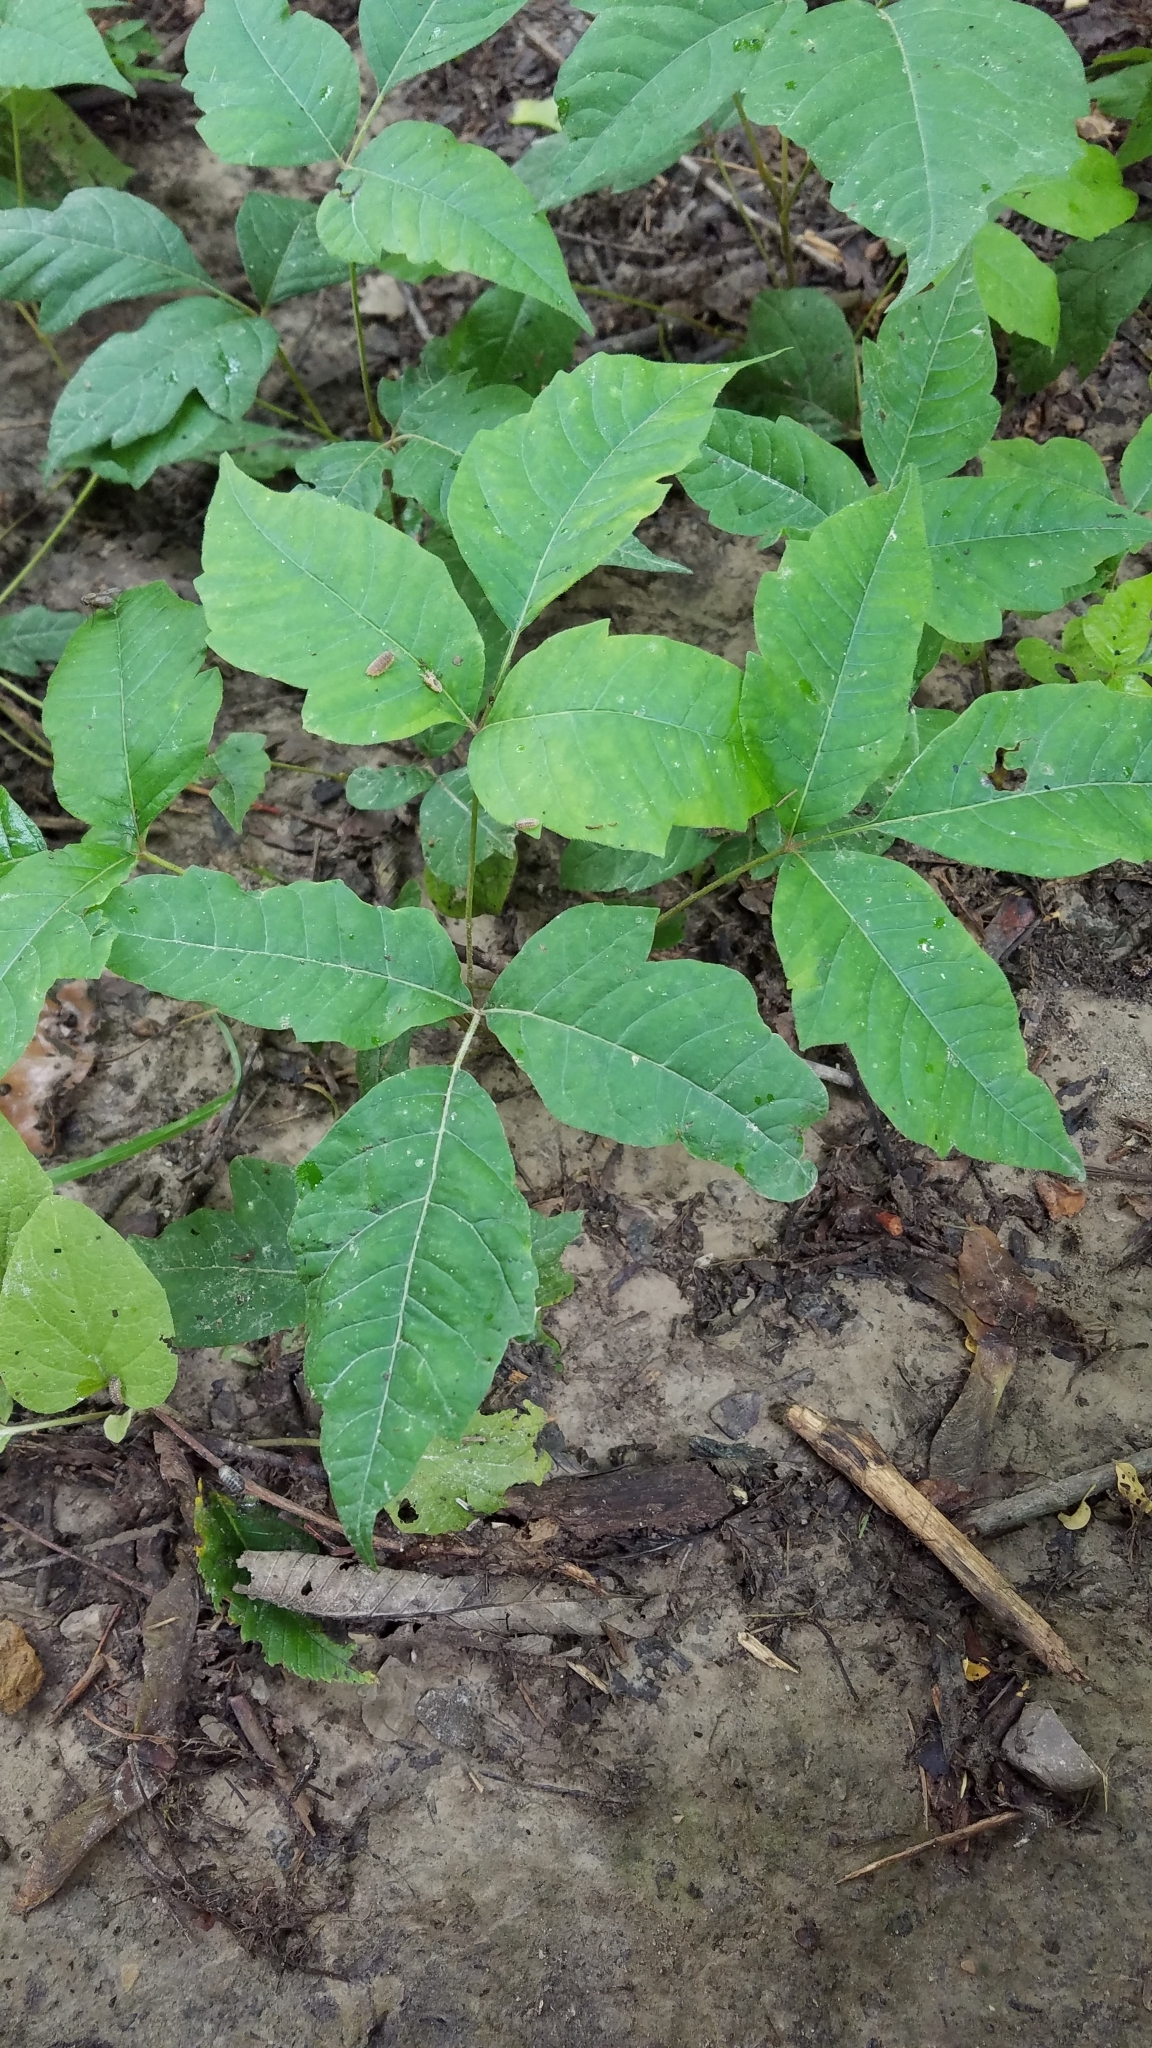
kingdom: Plantae
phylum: Tracheophyta
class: Magnoliopsida
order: Sapindales
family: Anacardiaceae
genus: Toxicodendron
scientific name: Toxicodendron radicans
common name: Poison ivy
